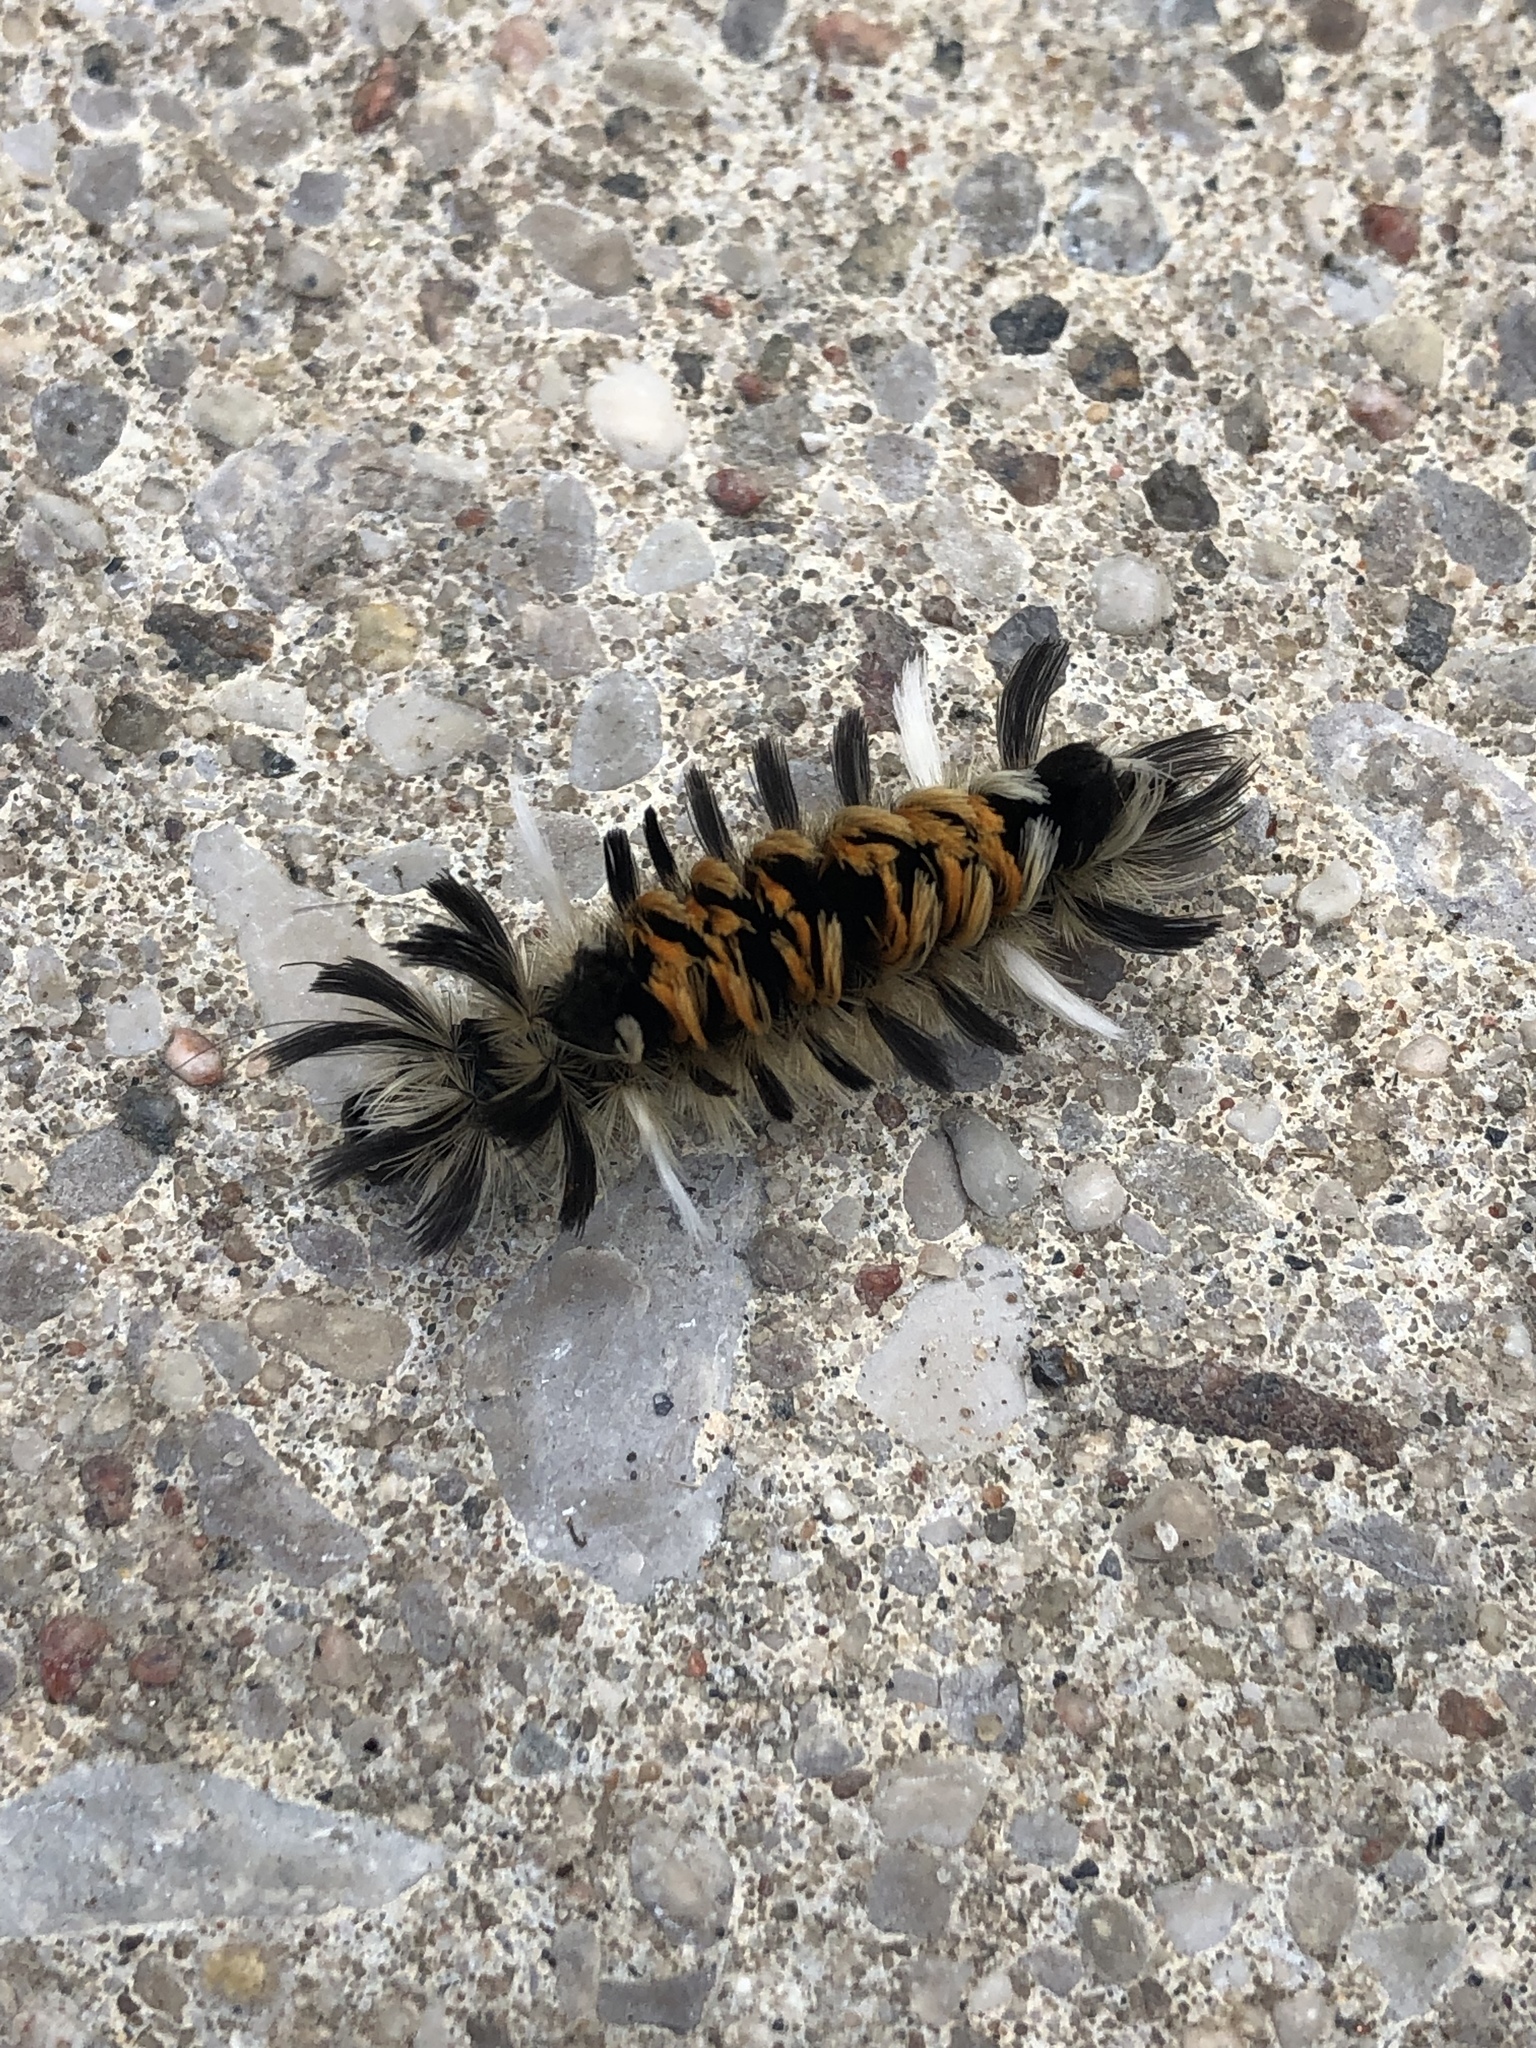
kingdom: Animalia
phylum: Arthropoda
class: Insecta
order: Lepidoptera
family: Erebidae
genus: Euchaetes
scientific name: Euchaetes egle
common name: Milkweed tussock moth
